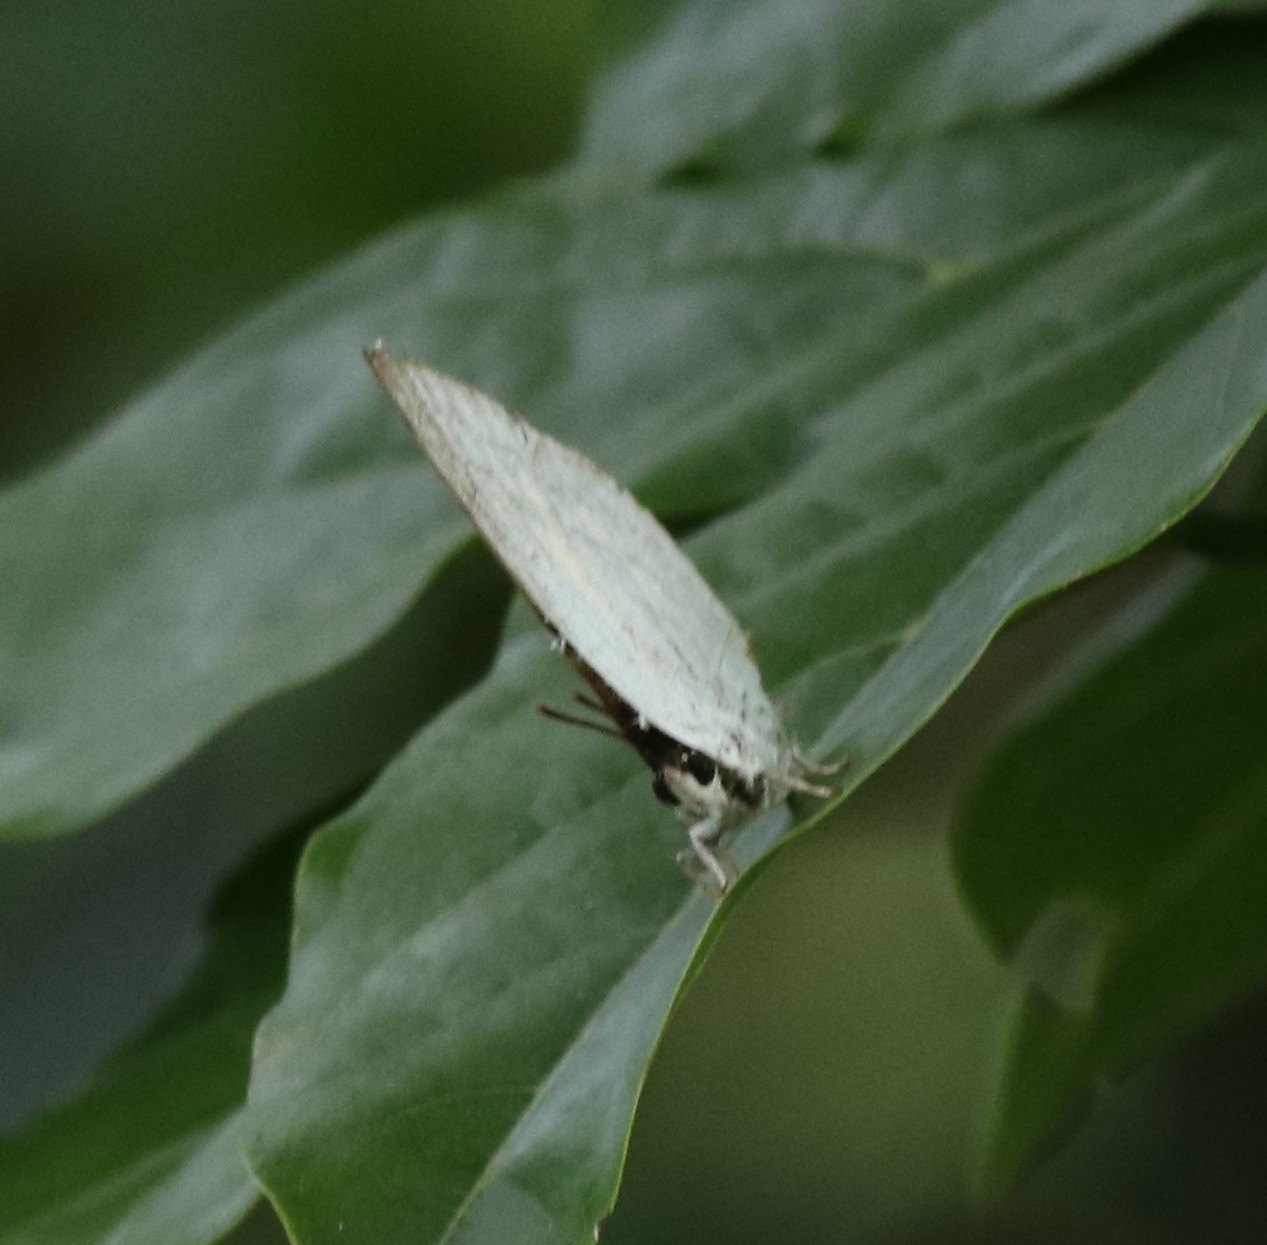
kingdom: Animalia
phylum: Arthropoda
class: Insecta
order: Lepidoptera
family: Lycaenidae
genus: Curetis
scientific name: Curetis thetis
